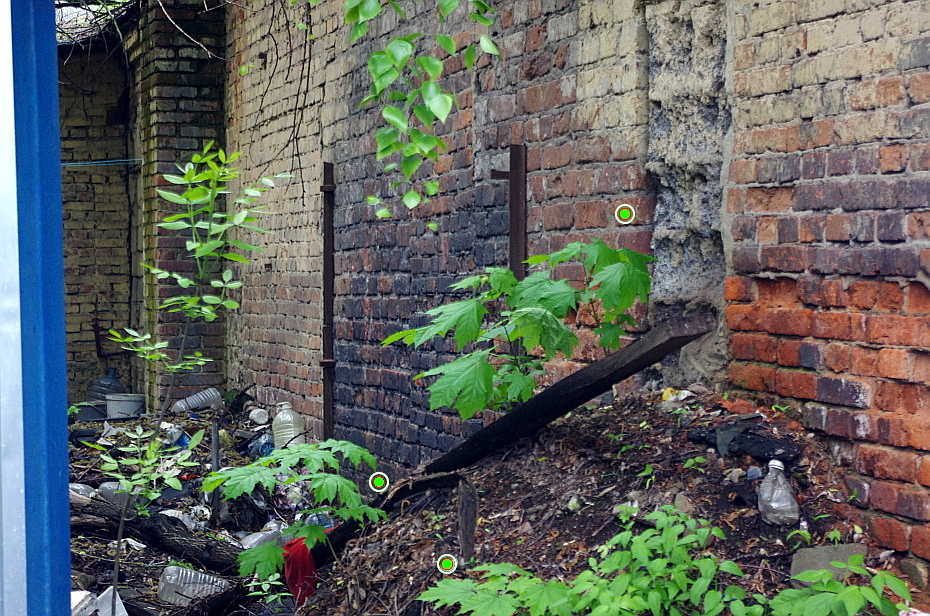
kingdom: Plantae
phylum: Tracheophyta
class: Magnoliopsida
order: Sapindales
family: Sapindaceae
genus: Acer
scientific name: Acer platanoides
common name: Norway maple
